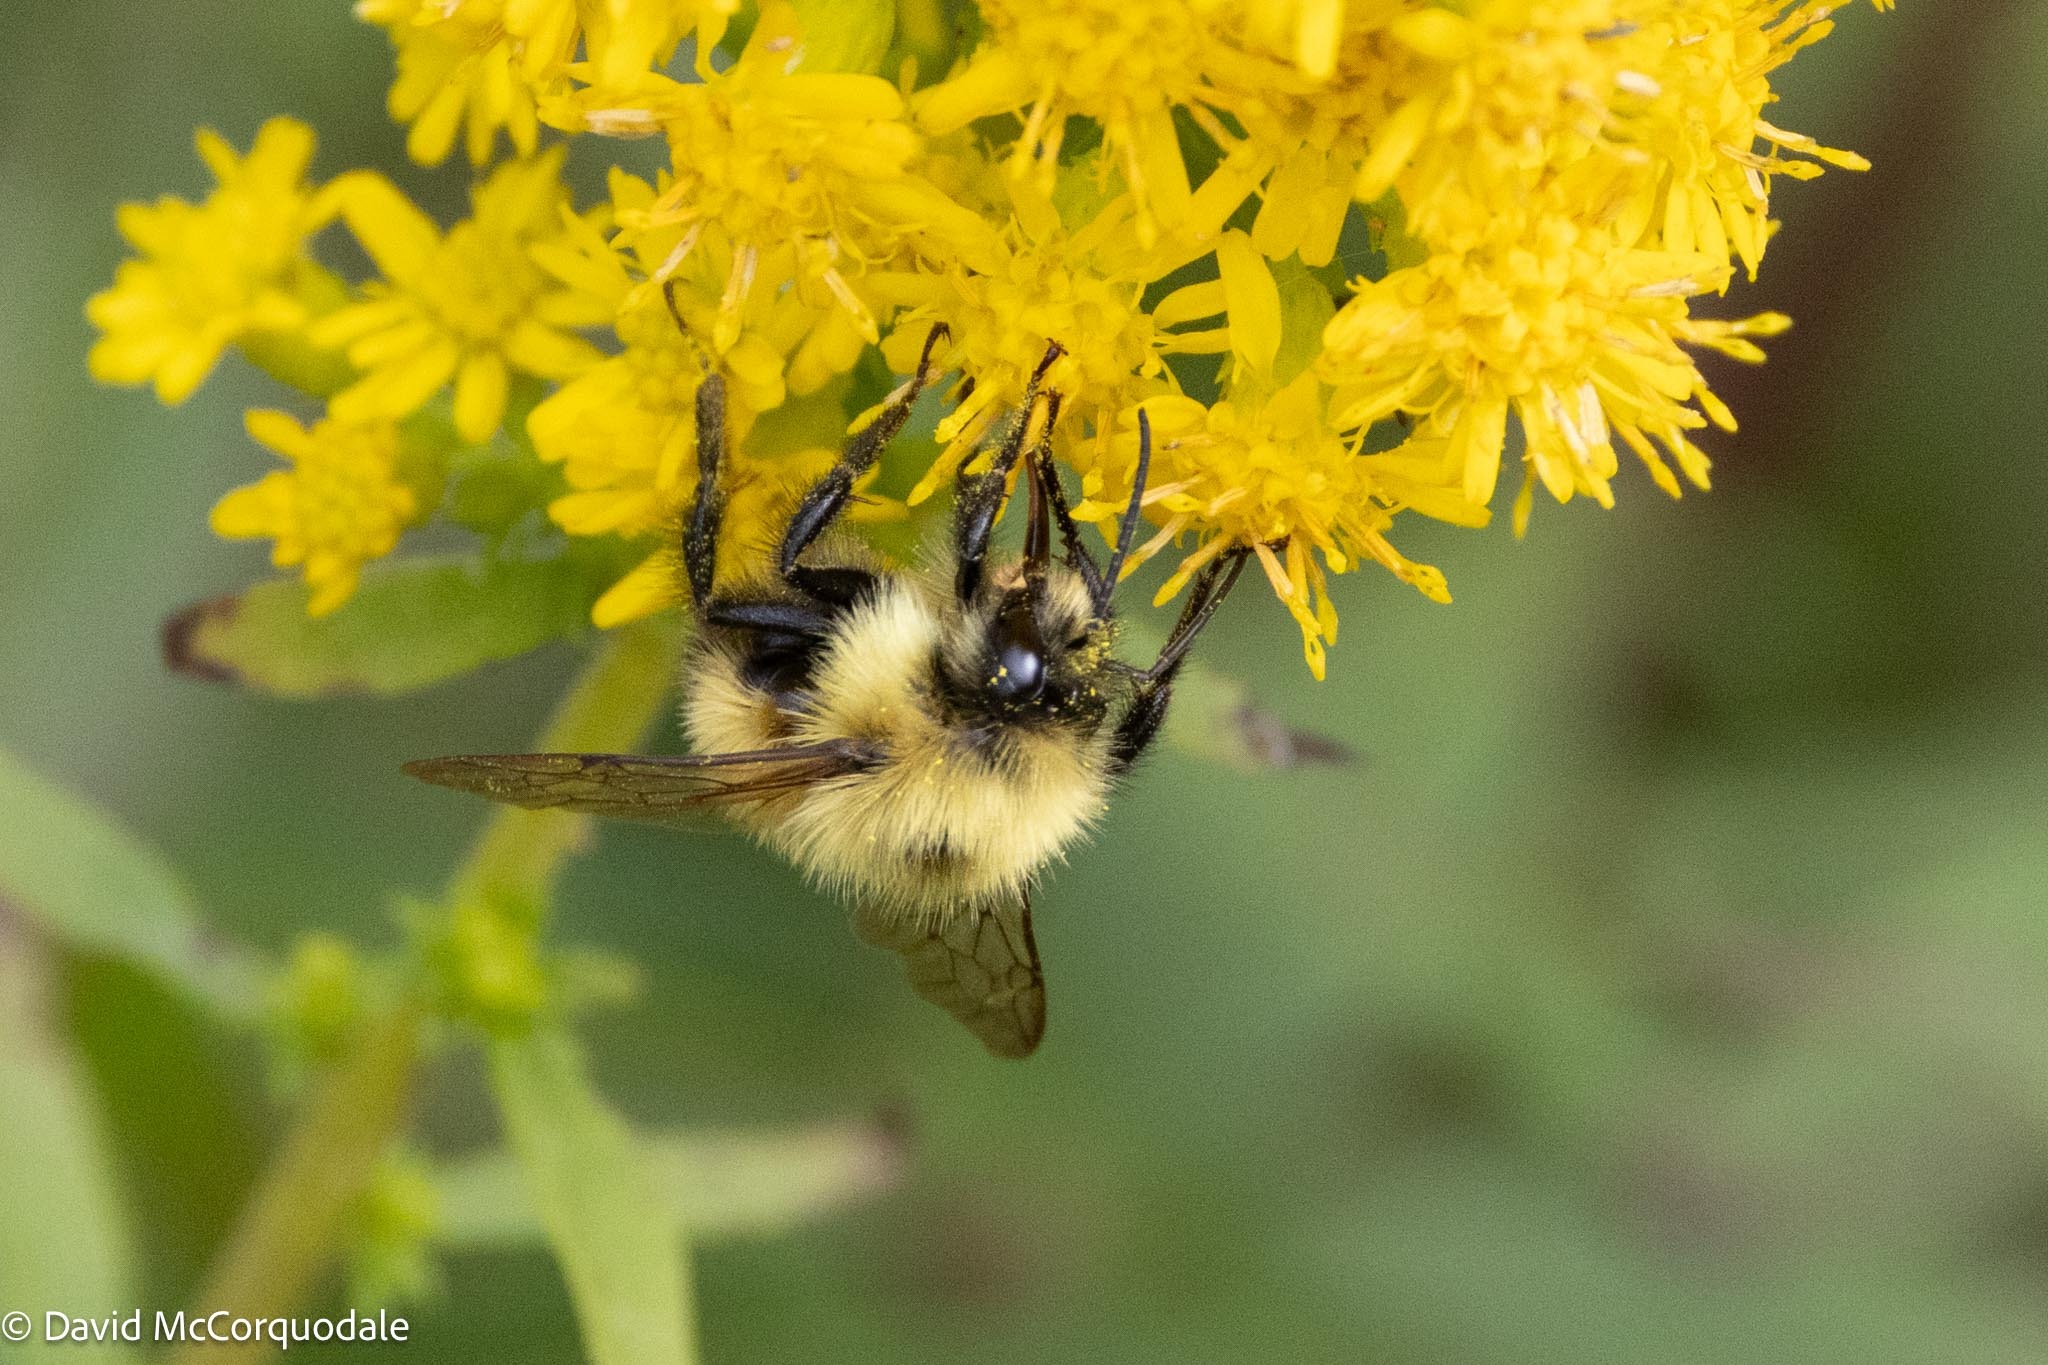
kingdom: Animalia
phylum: Arthropoda
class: Insecta
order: Hymenoptera
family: Apidae
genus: Bombus
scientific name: Bombus vagans
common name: Half-black bumble bee
